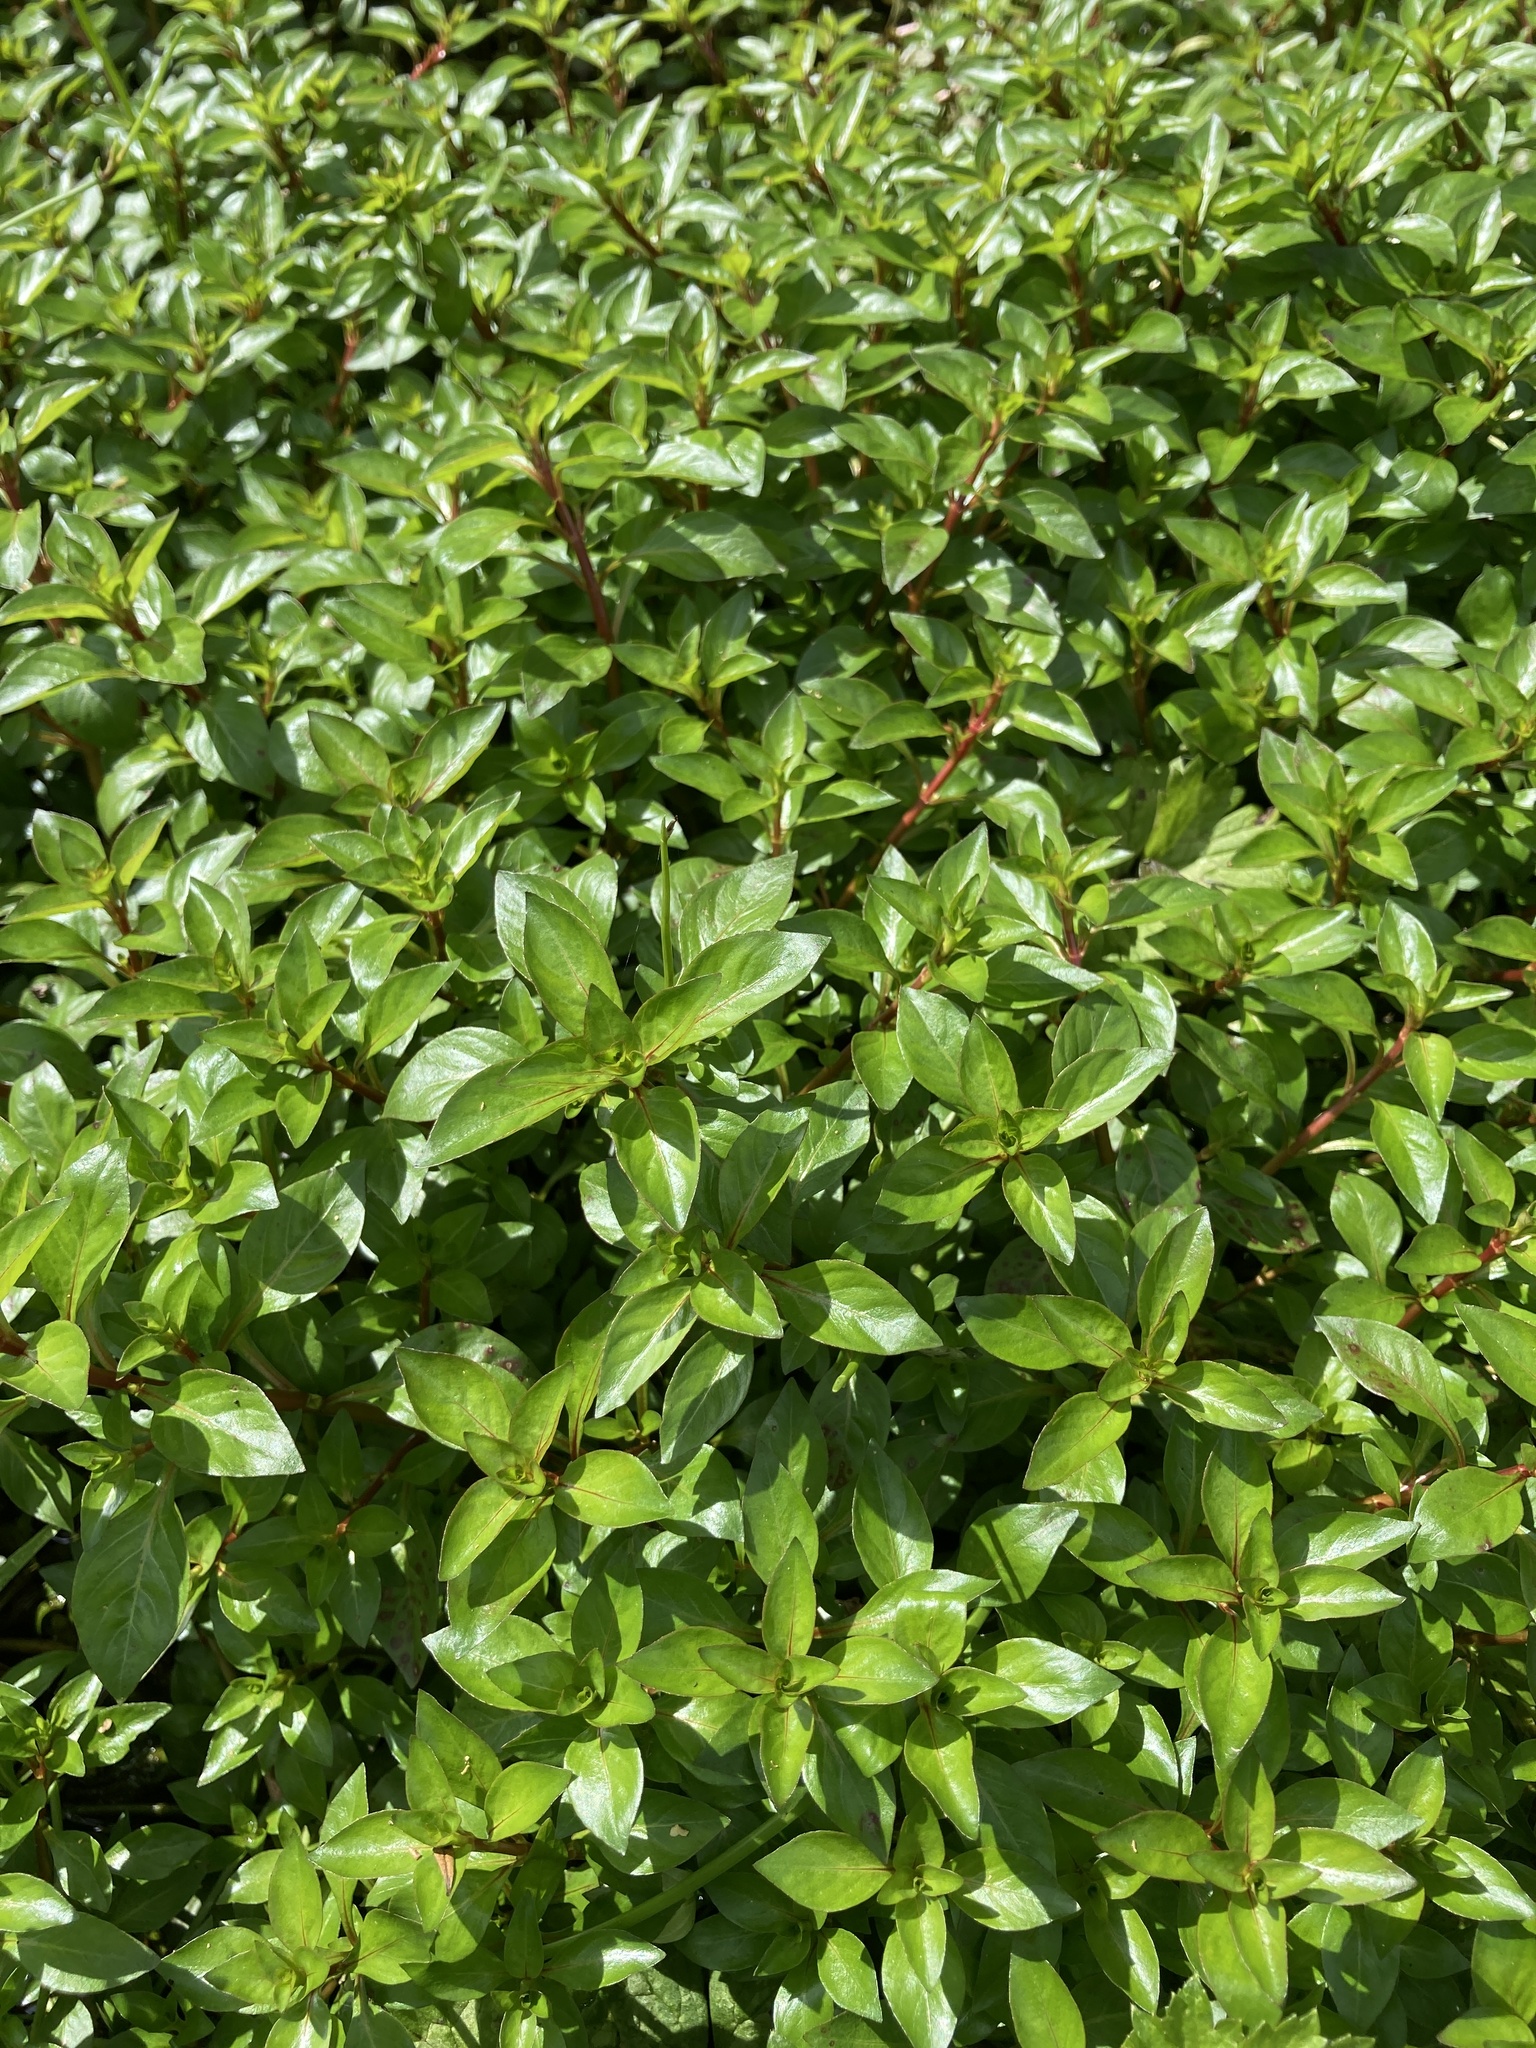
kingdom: Plantae
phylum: Tracheophyta
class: Magnoliopsida
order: Myrtales
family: Onagraceae
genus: Ludwigia
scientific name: Ludwigia palustris
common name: Hampshire-purslane
